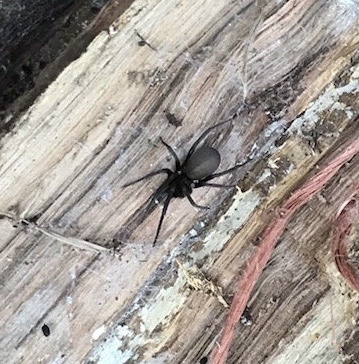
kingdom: Animalia
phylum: Arthropoda
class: Arachnida
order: Araneae
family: Filistatidae
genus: Kukulcania
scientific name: Kukulcania hibernalis
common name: Crevice weaver
